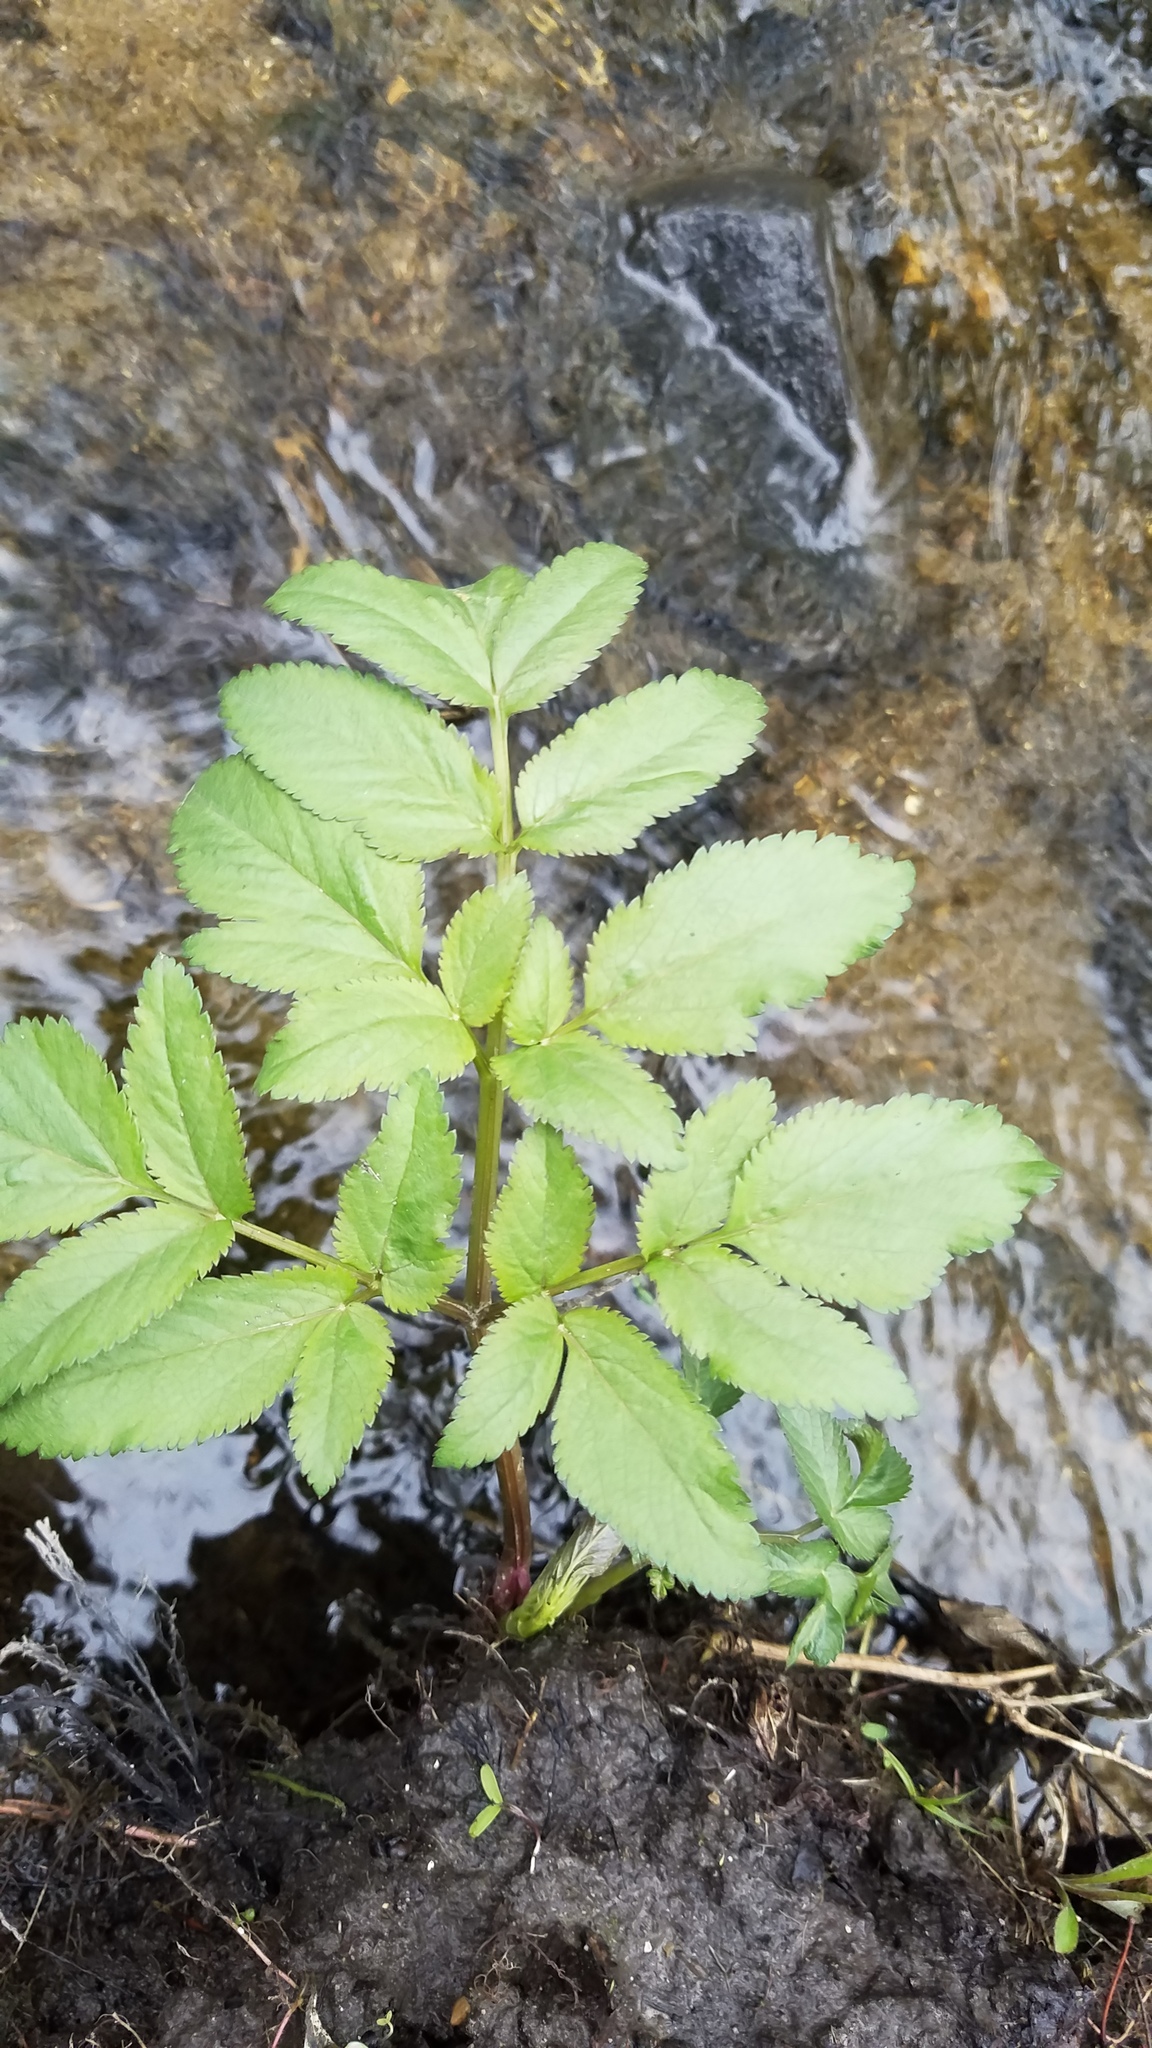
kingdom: Plantae
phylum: Tracheophyta
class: Magnoliopsida
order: Apiales
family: Apiaceae
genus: Angelica
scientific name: Angelica atropurpurea
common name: Great angelica
